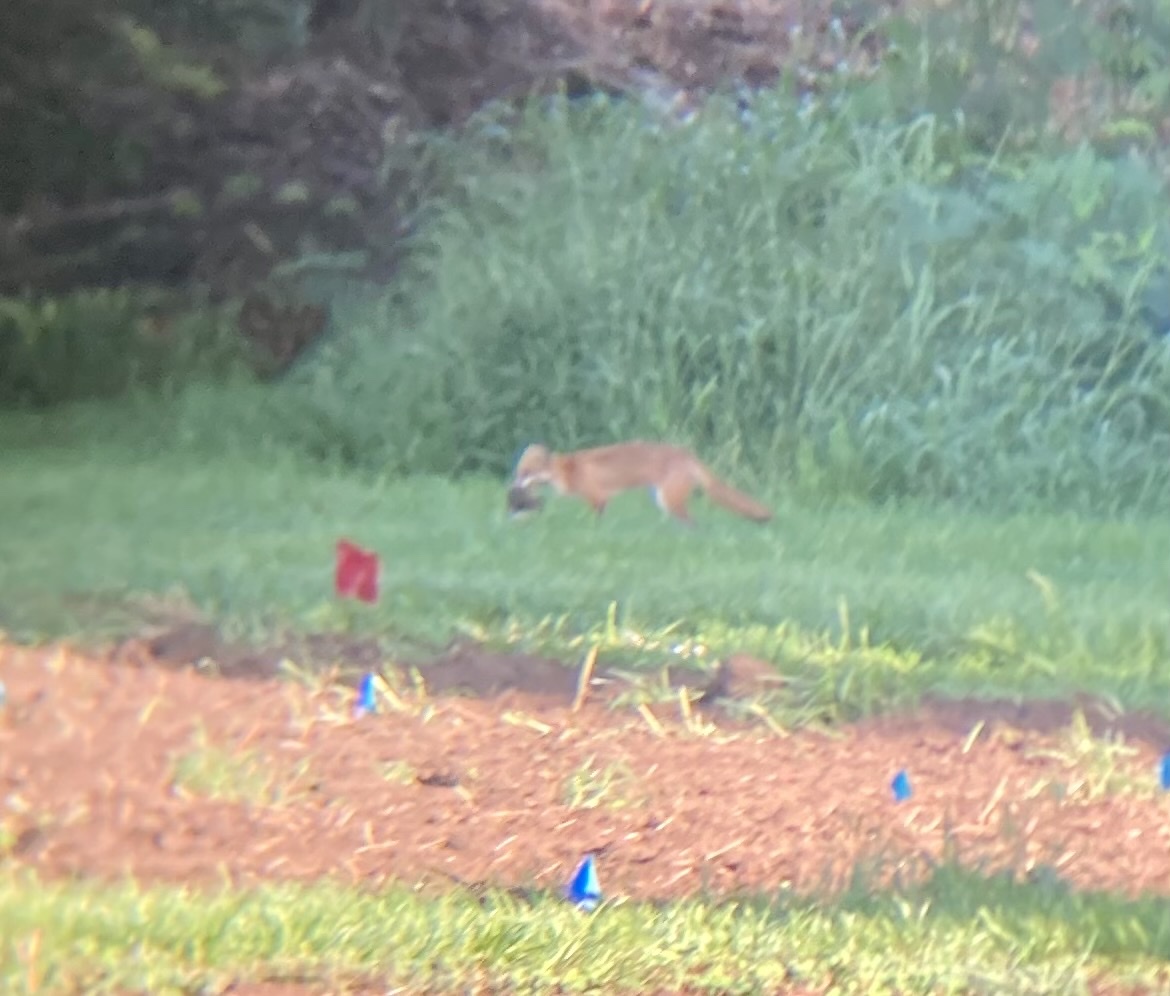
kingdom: Animalia
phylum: Chordata
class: Mammalia
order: Carnivora
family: Canidae
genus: Vulpes
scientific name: Vulpes vulpes
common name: Red fox
